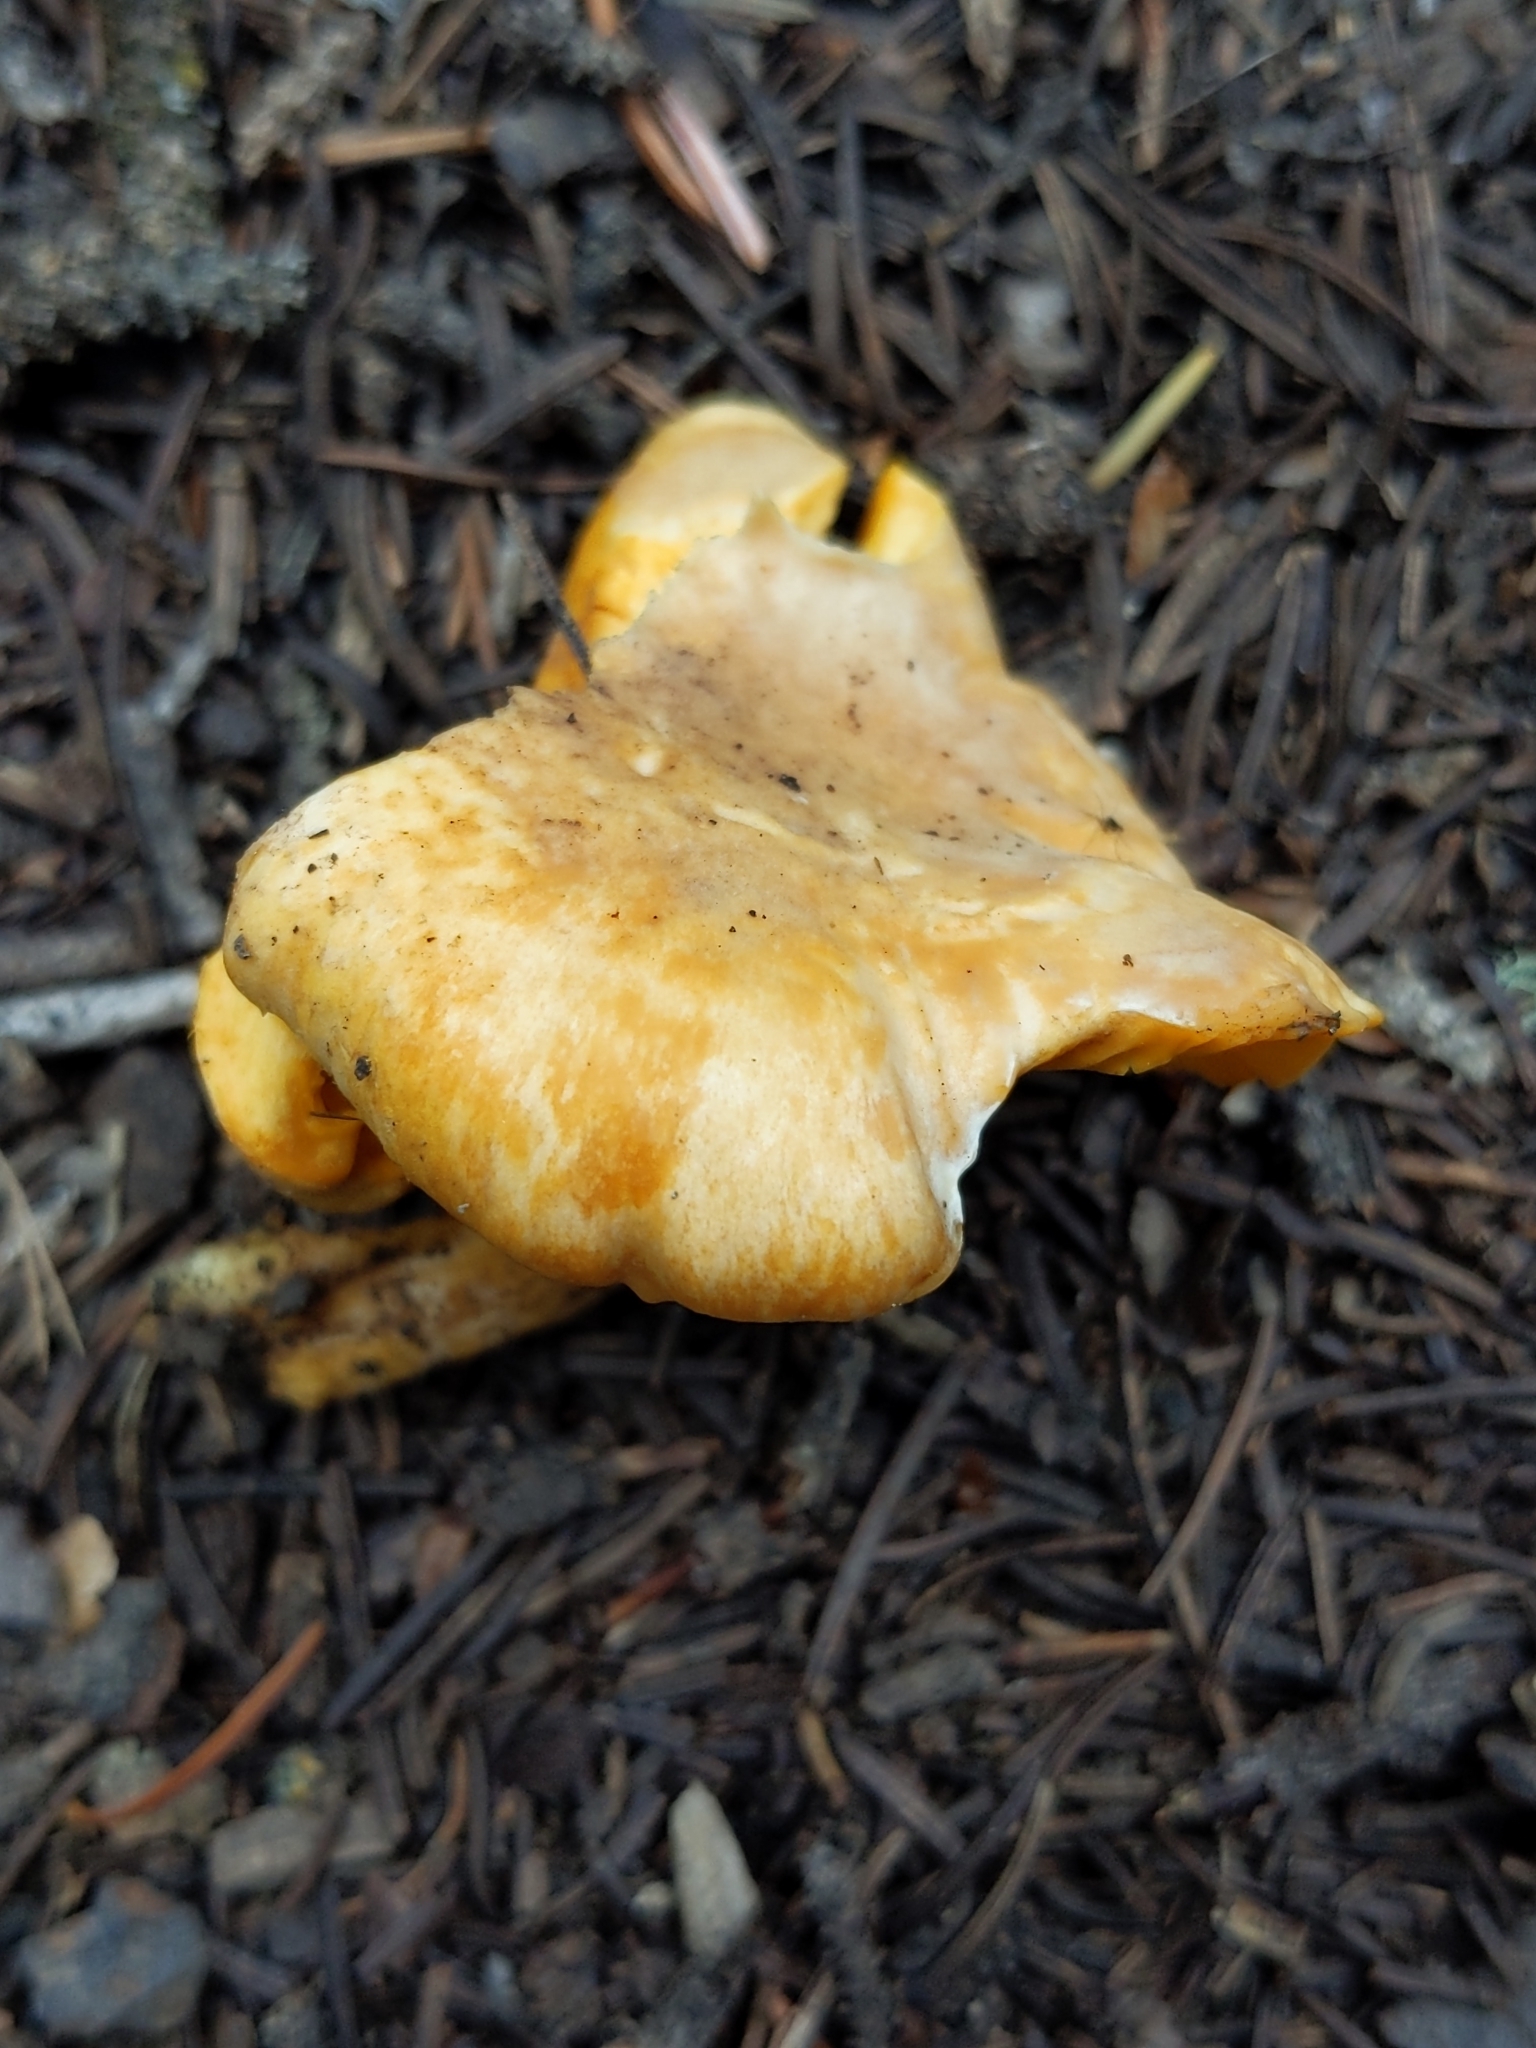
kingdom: Fungi
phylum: Basidiomycota
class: Agaricomycetes
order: Cantharellales
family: Hydnaceae
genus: Cantharellus
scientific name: Cantharellus roseocanus
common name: Rainbow chanterelle
